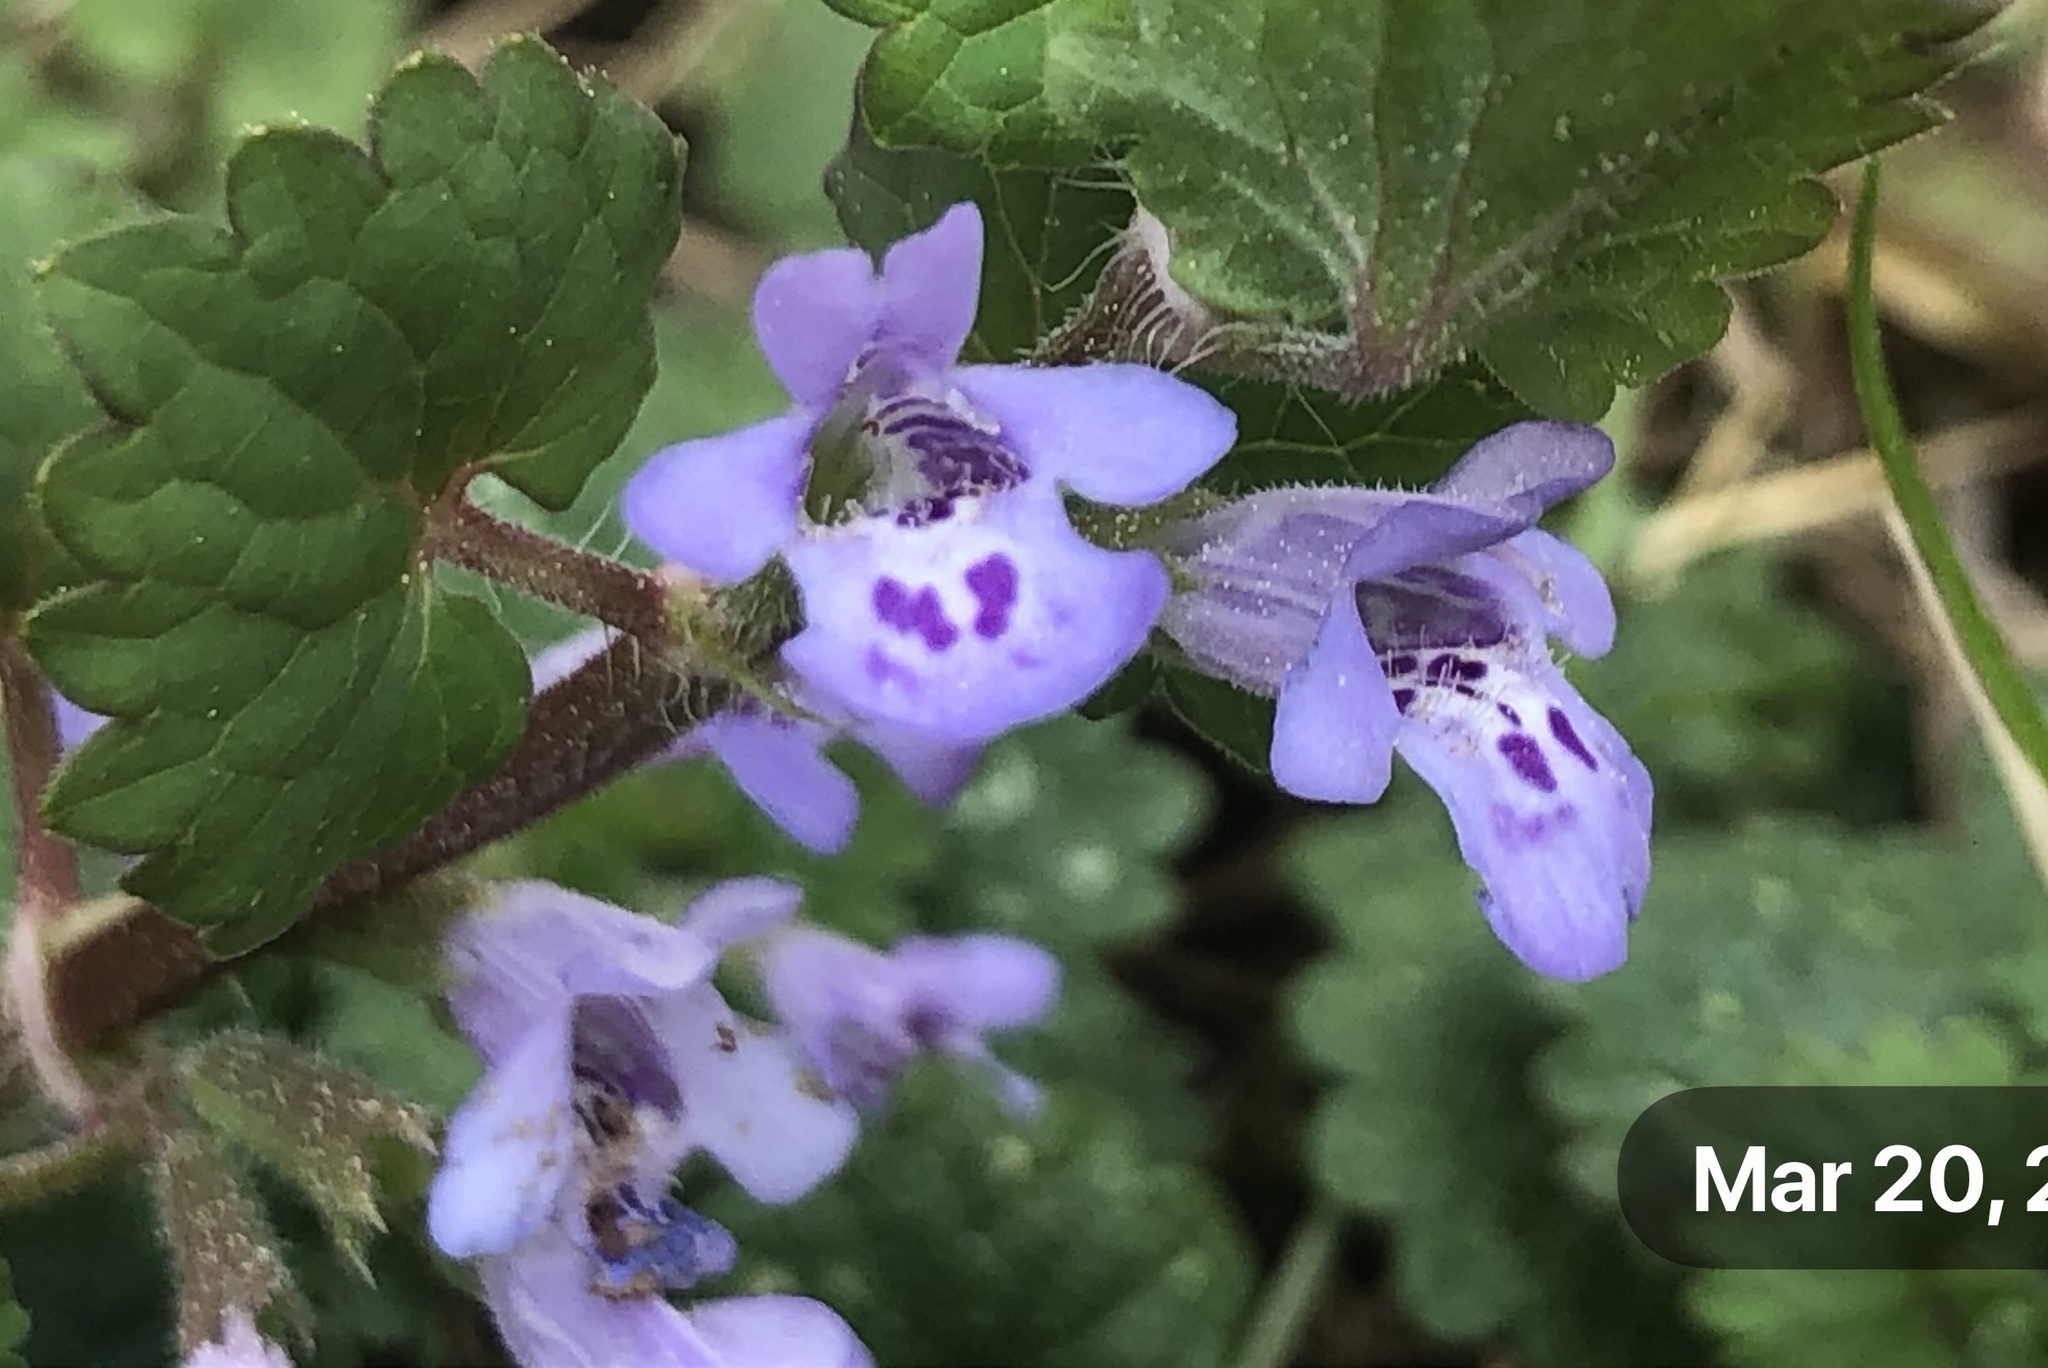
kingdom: Plantae
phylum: Tracheophyta
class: Magnoliopsida
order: Lamiales
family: Lamiaceae
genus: Glechoma
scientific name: Glechoma hederacea
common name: Ground ivy
